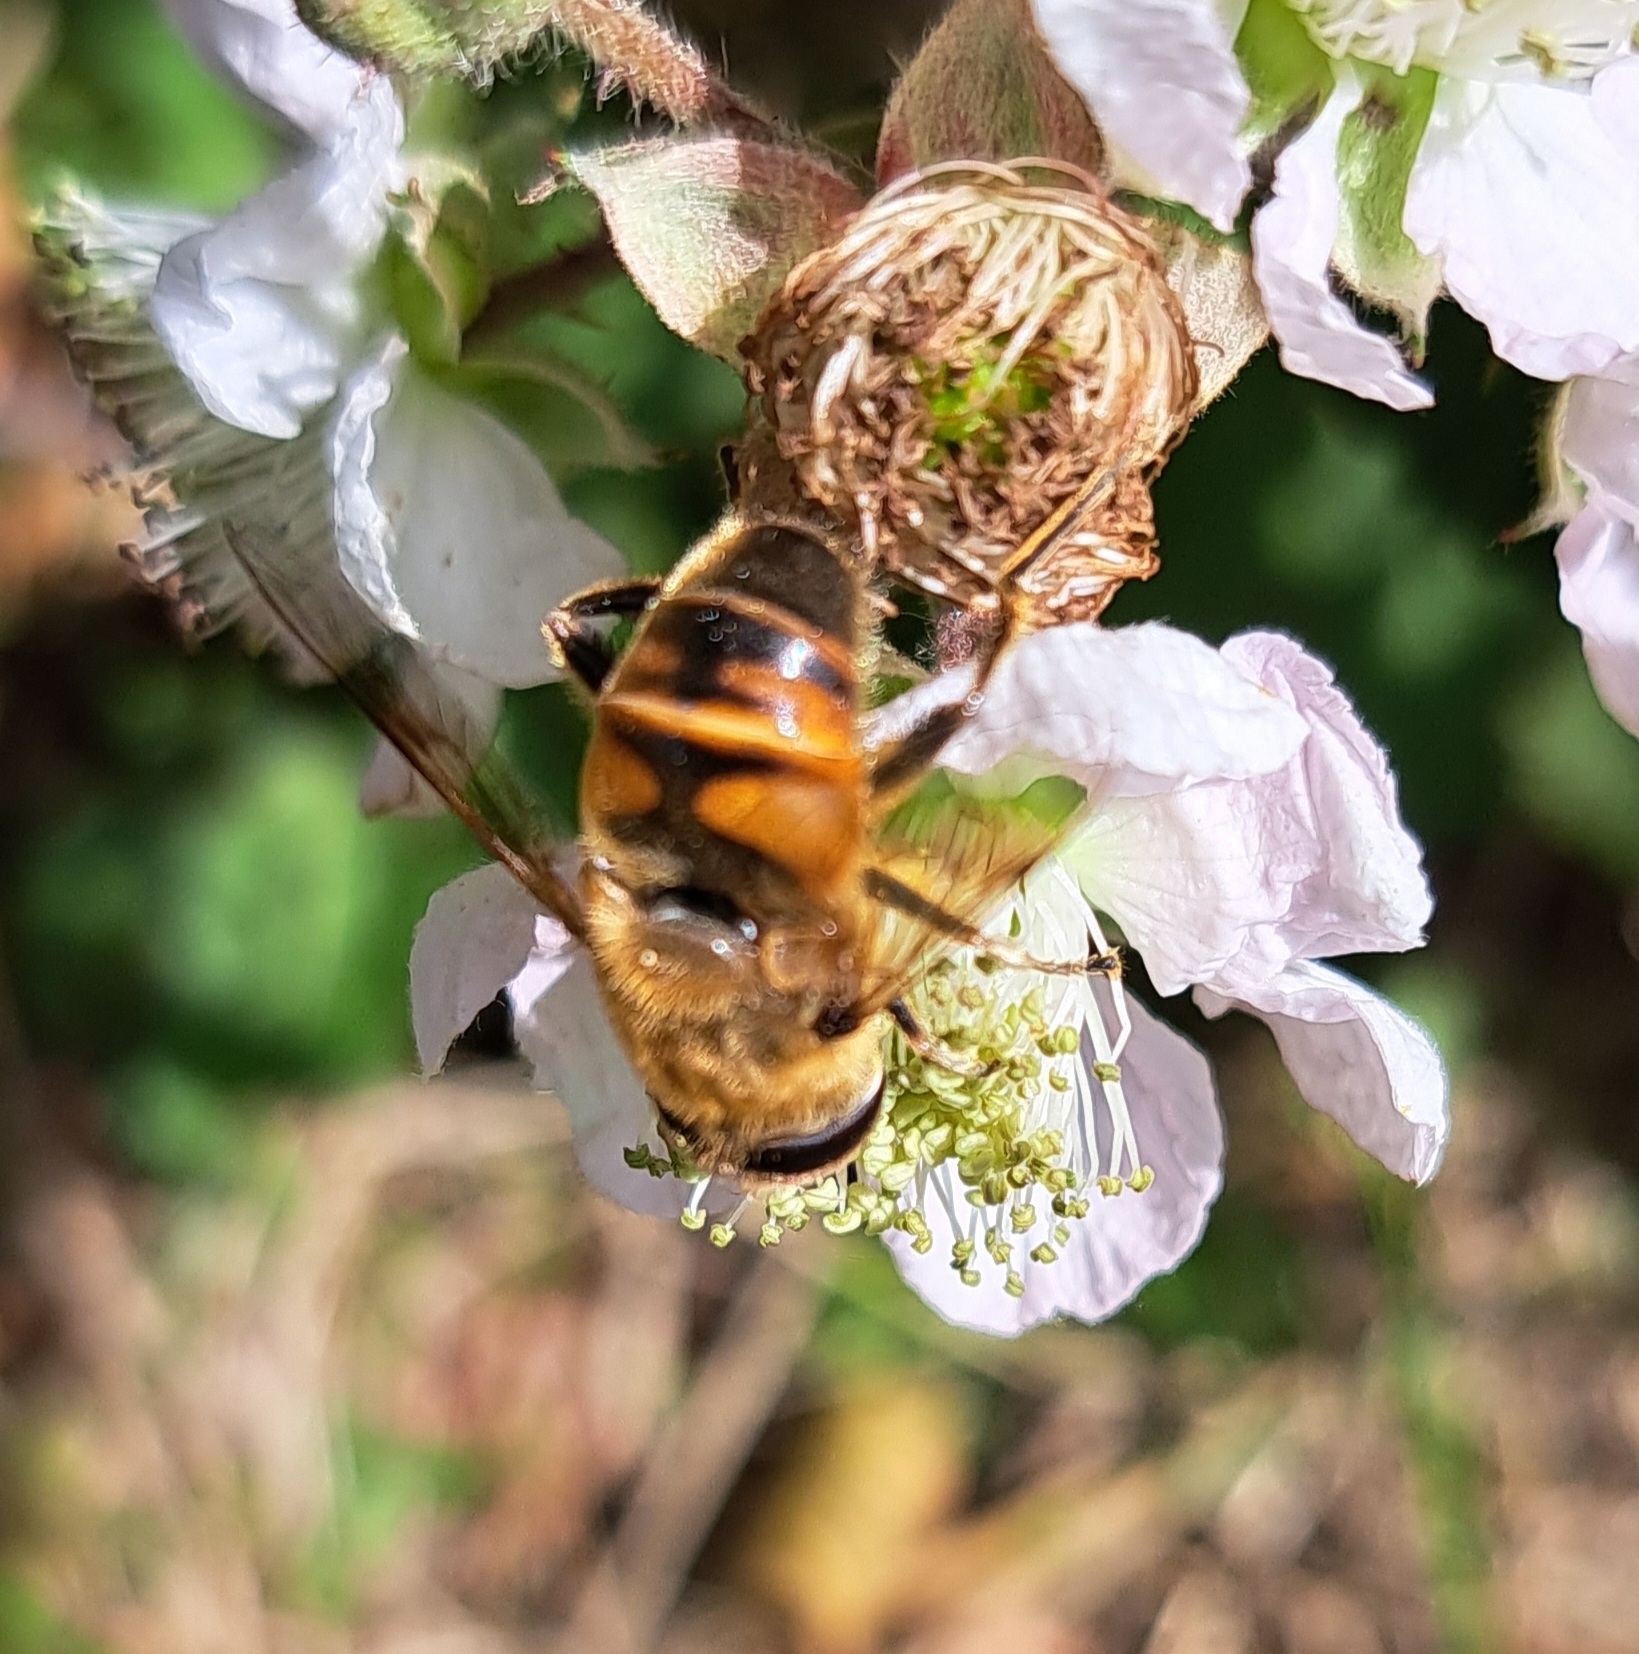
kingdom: Animalia
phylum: Arthropoda
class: Insecta
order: Diptera
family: Syrphidae
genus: Eristalis
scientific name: Eristalis tenax
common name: Drone fly
